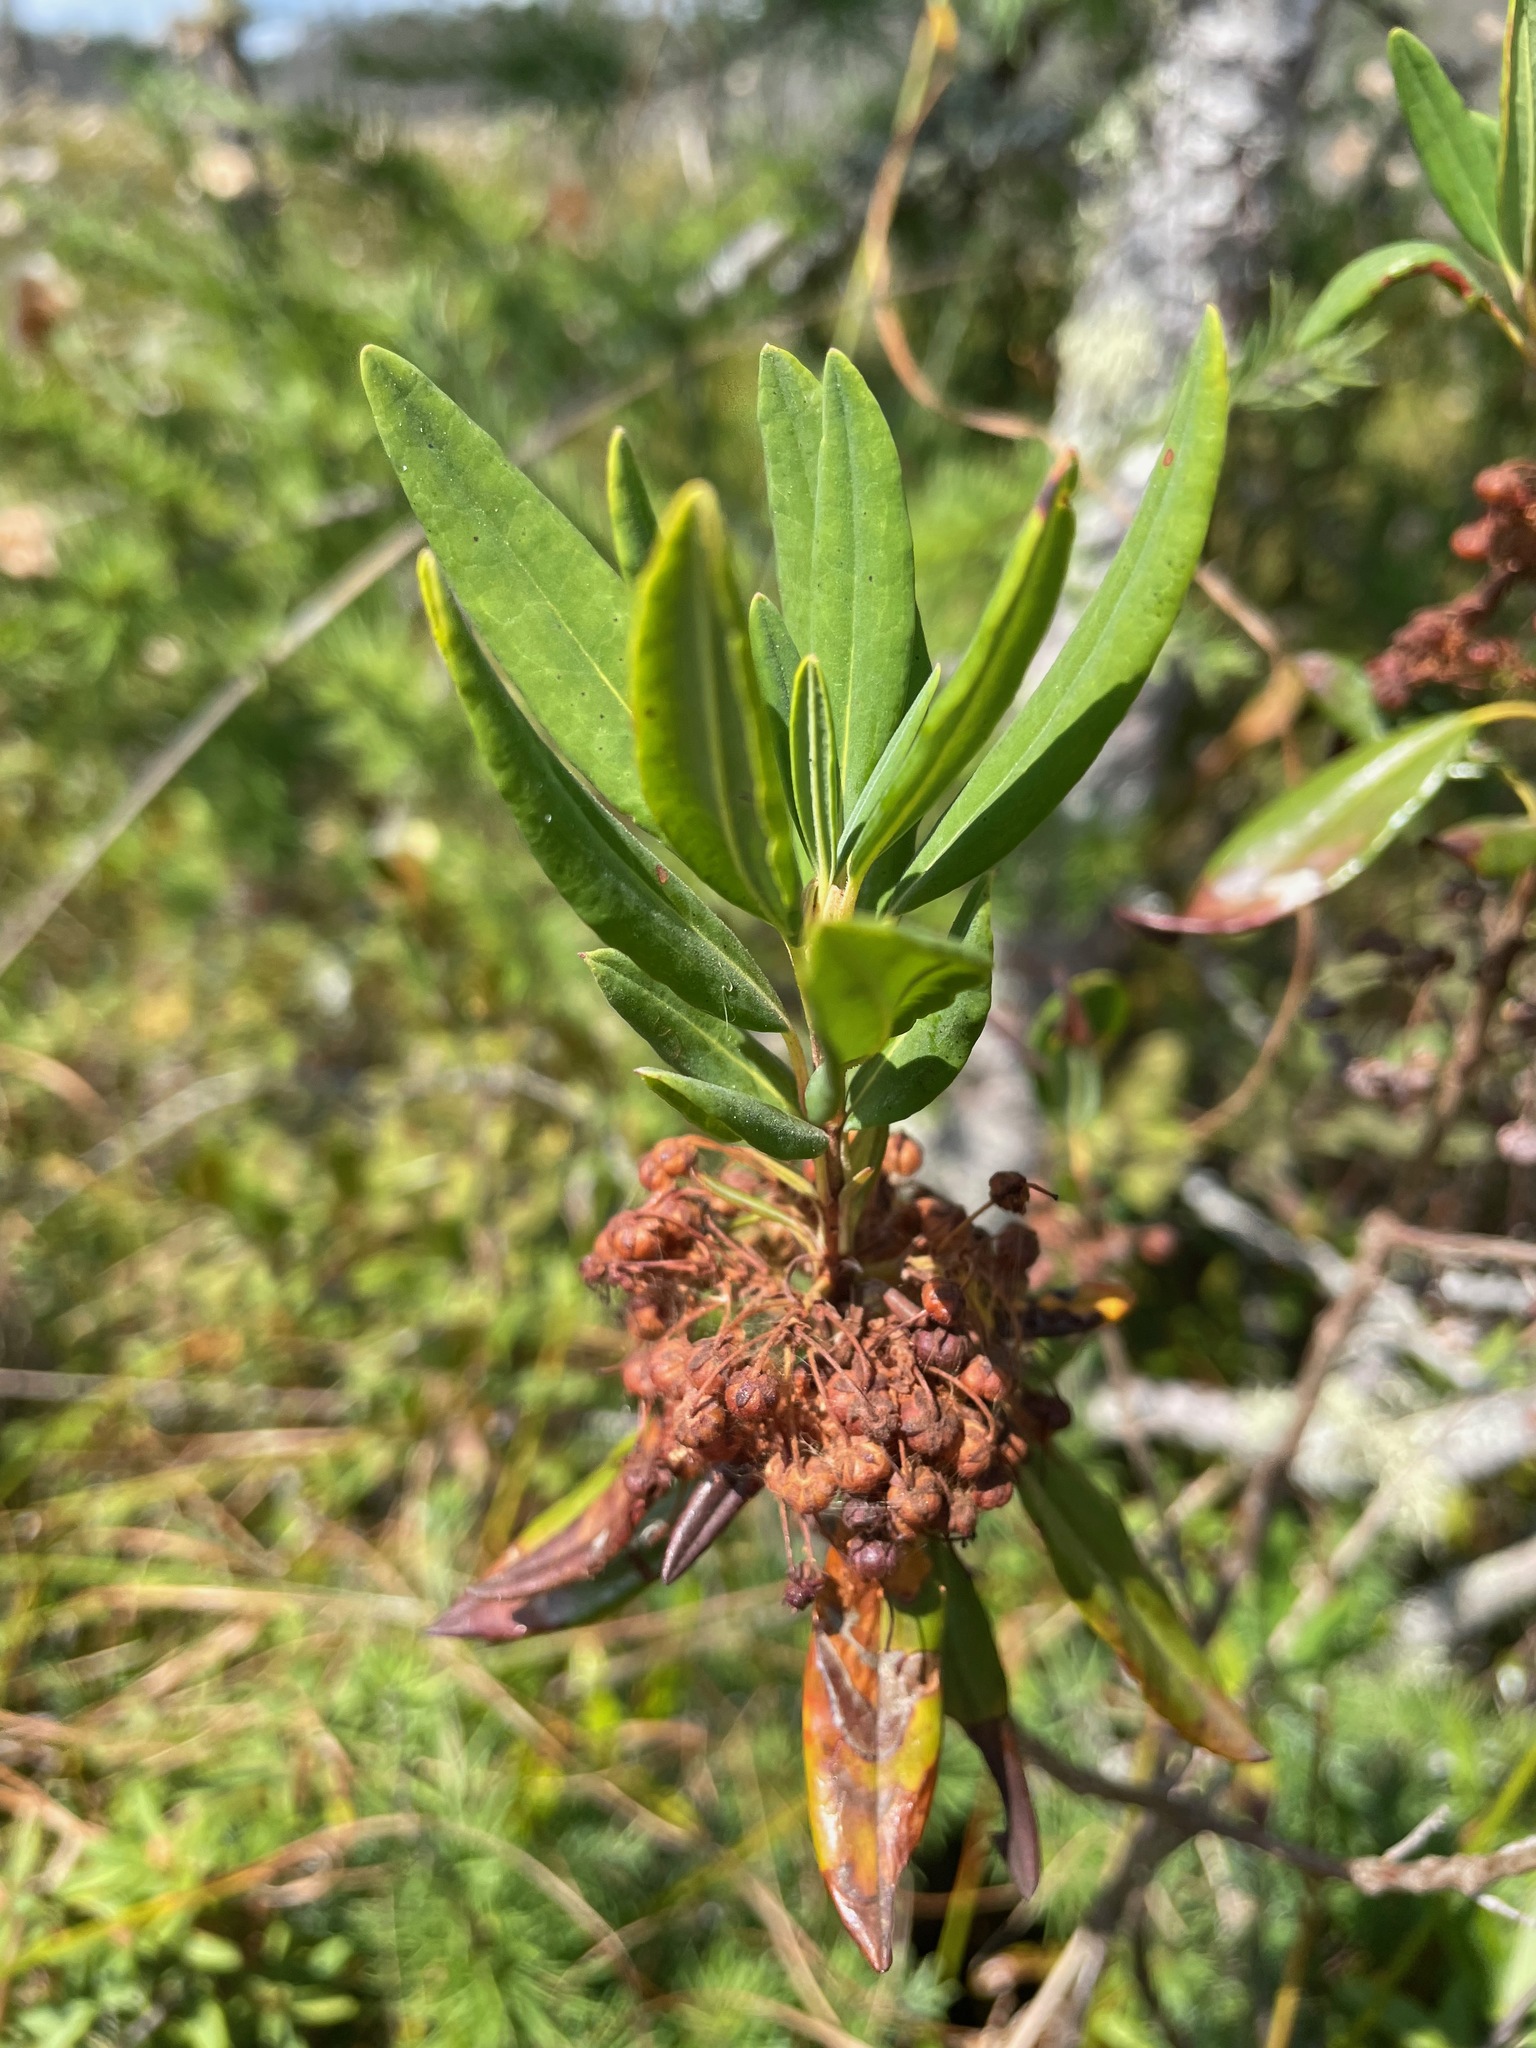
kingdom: Plantae
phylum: Tracheophyta
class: Magnoliopsida
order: Ericales
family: Ericaceae
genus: Kalmia
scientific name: Kalmia angustifolia
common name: Sheep-laurel
